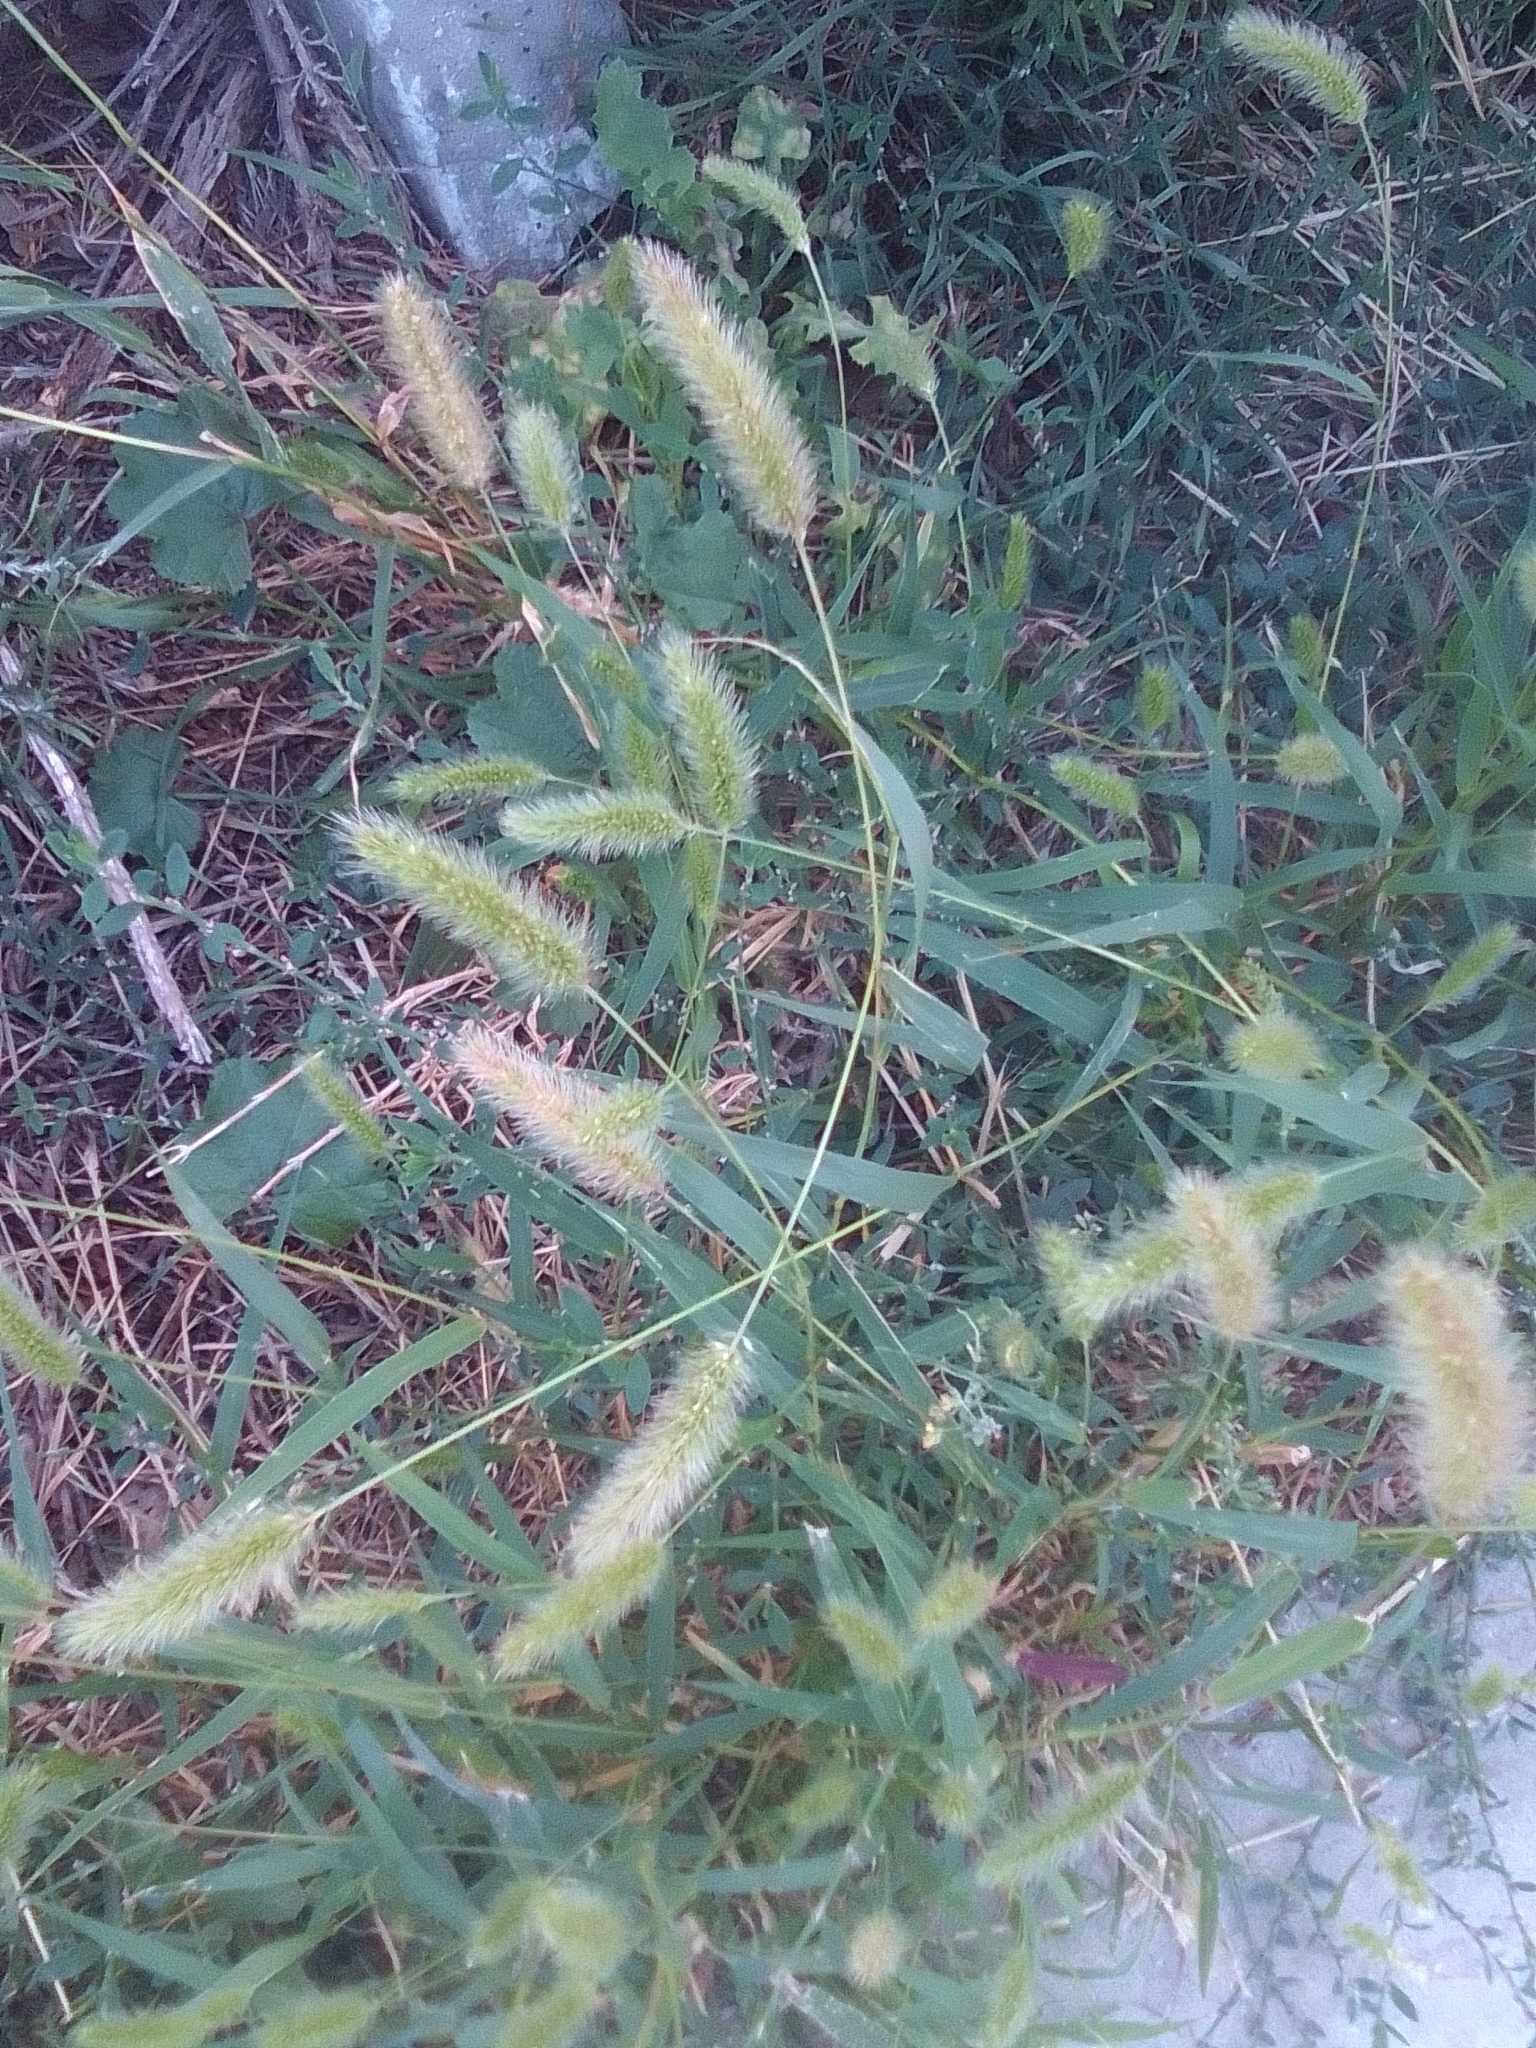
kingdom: Plantae
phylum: Tracheophyta
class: Liliopsida
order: Poales
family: Poaceae
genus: Setaria
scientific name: Setaria viridis
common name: Green bristlegrass
